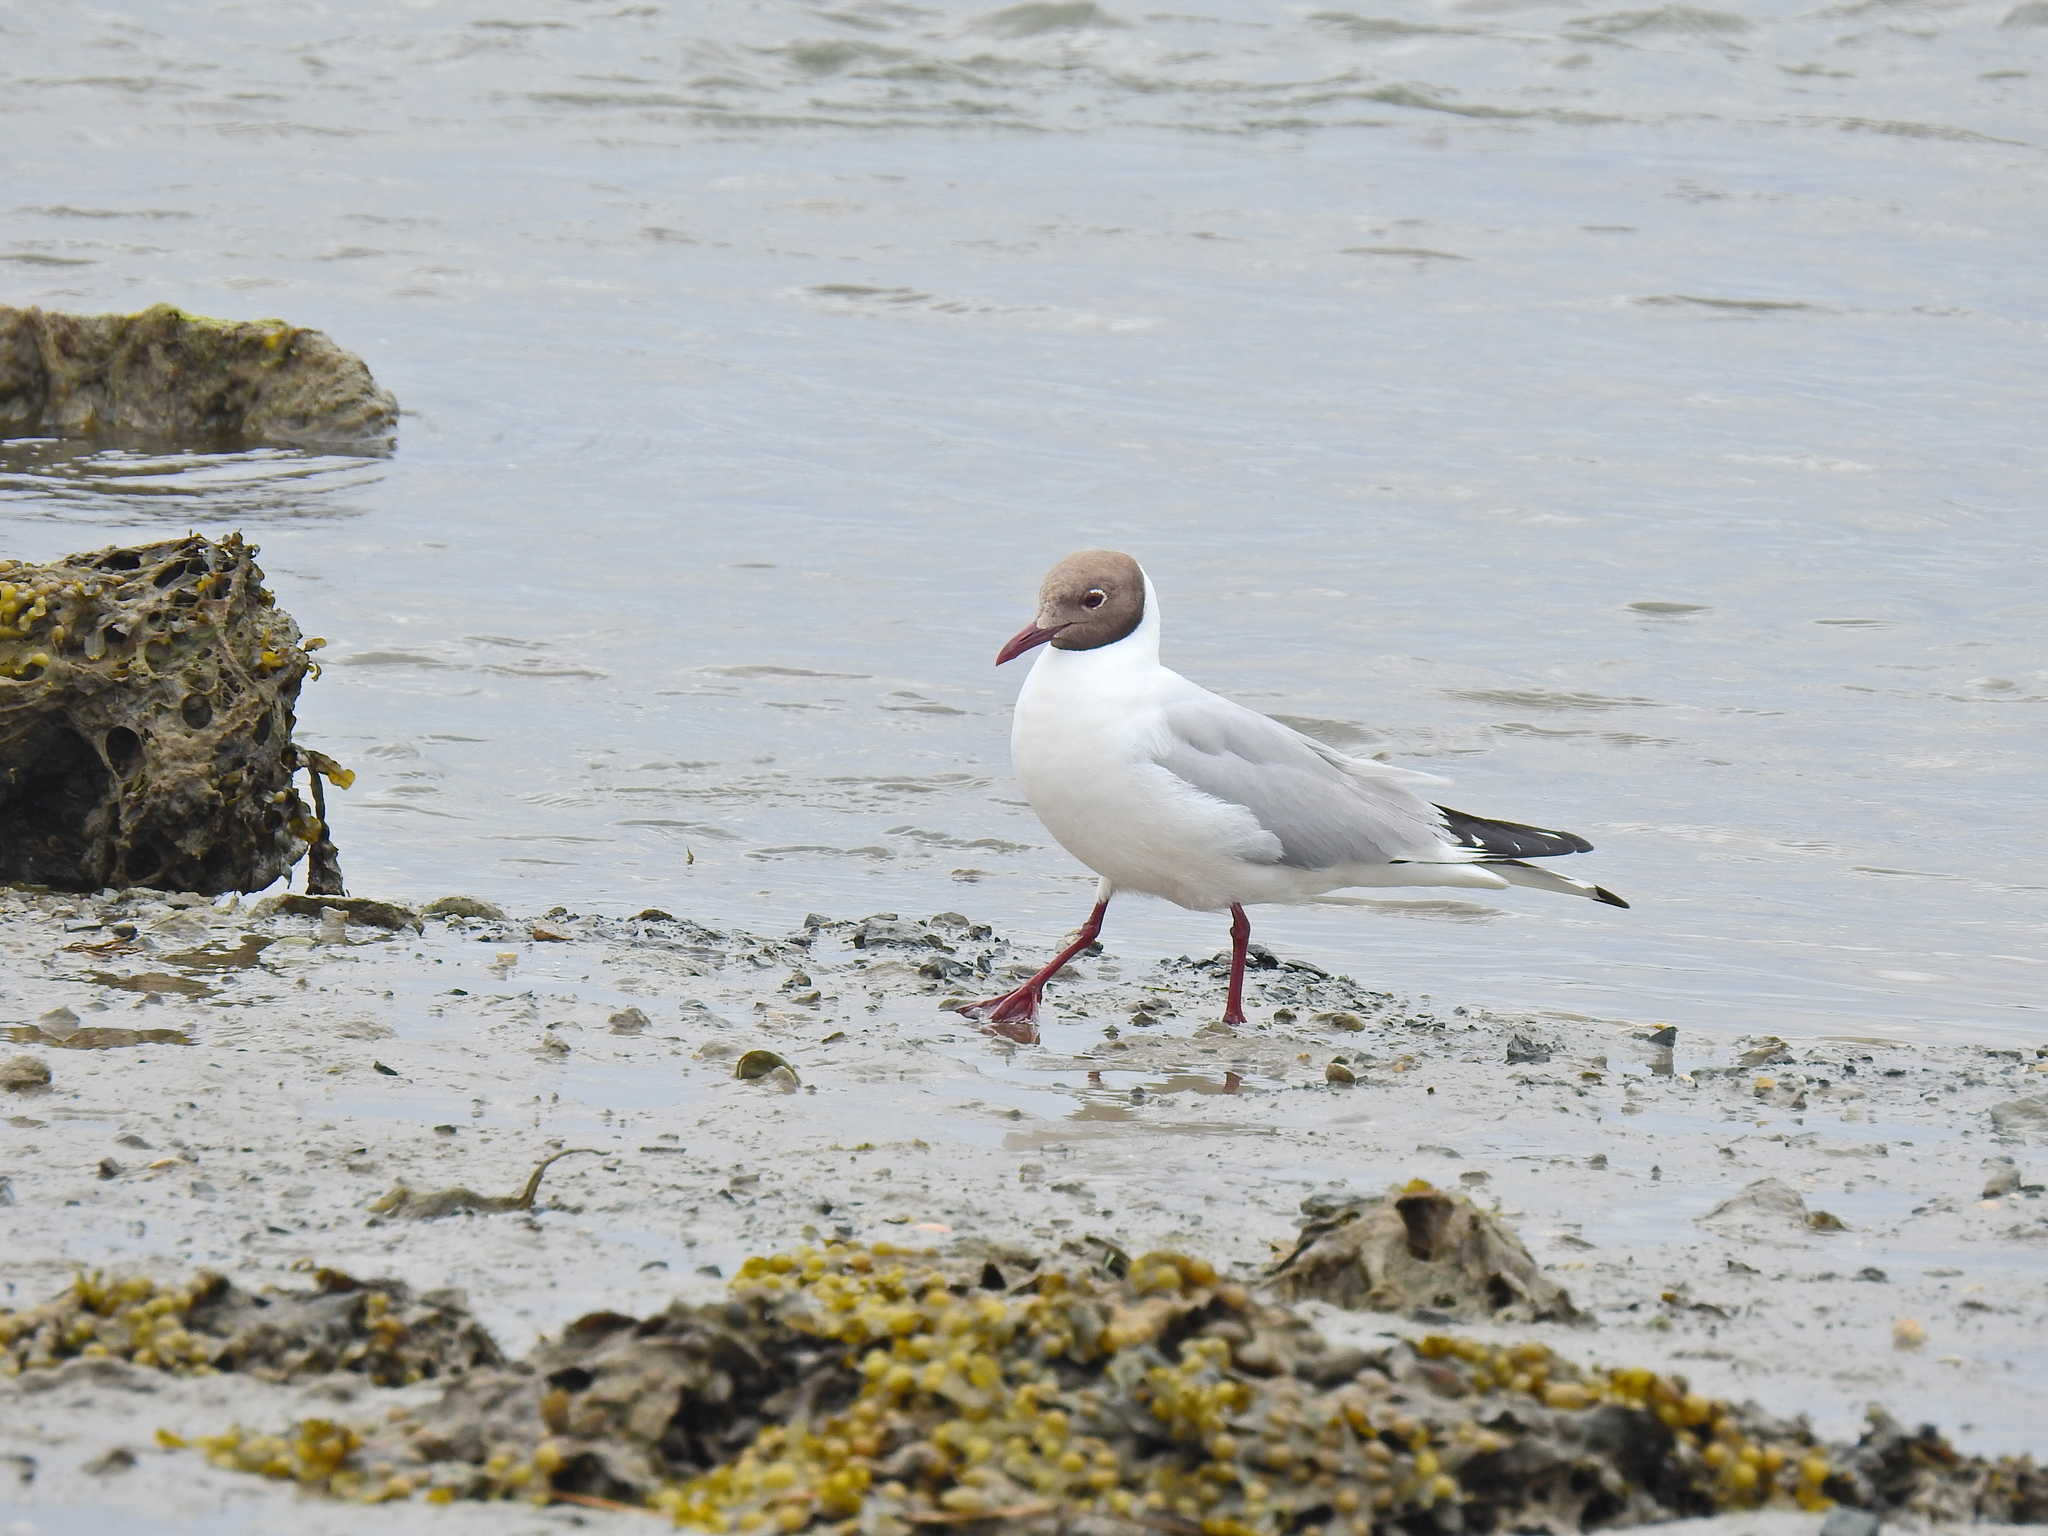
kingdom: Animalia
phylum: Chordata
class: Aves
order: Charadriiformes
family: Laridae
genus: Chroicocephalus
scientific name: Chroicocephalus ridibundus
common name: Black-headed gull
